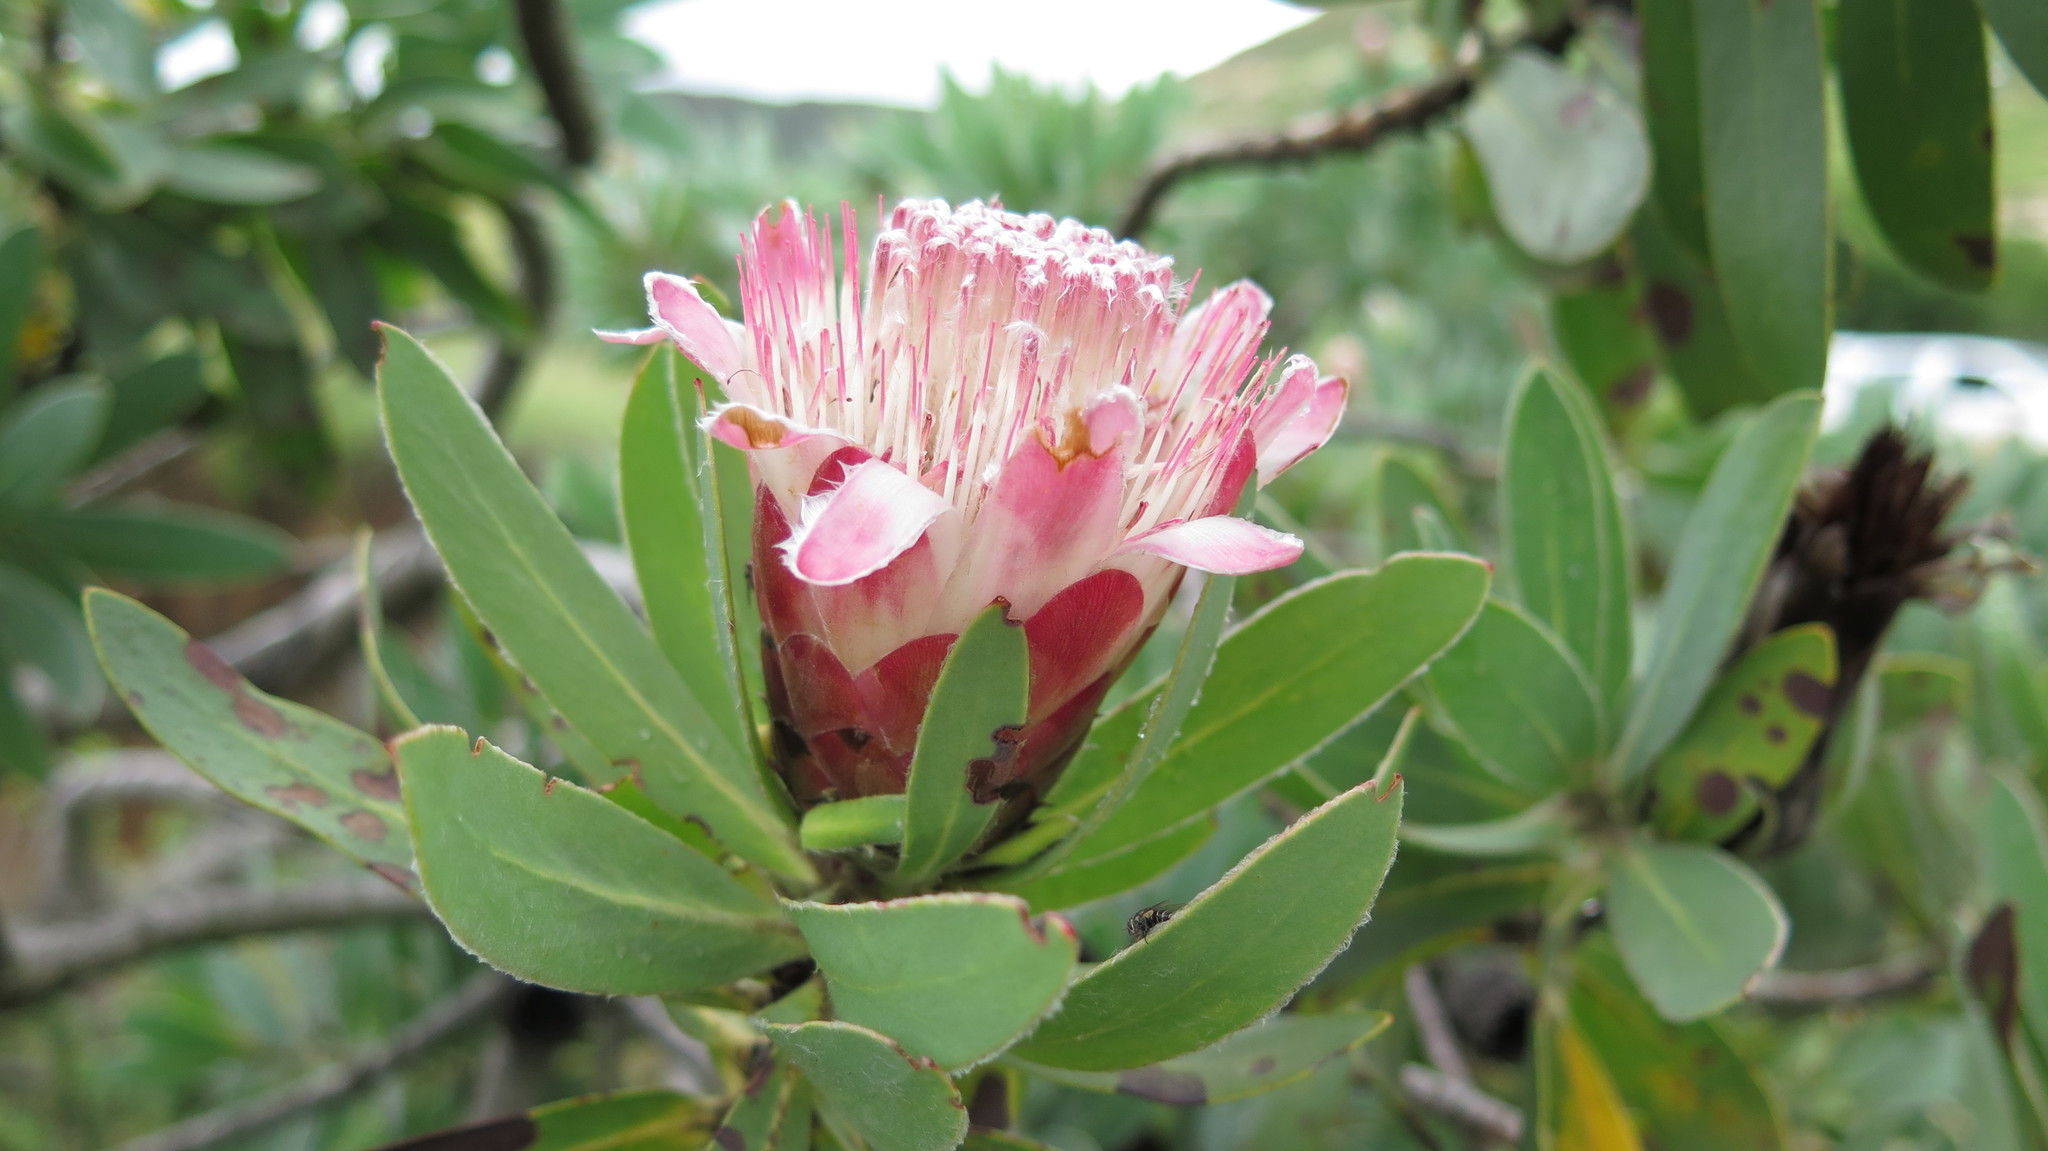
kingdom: Plantae
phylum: Tracheophyta
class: Magnoliopsida
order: Proteales
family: Proteaceae
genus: Protea
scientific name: Protea subvestita
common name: Lip-flower sugarbush
